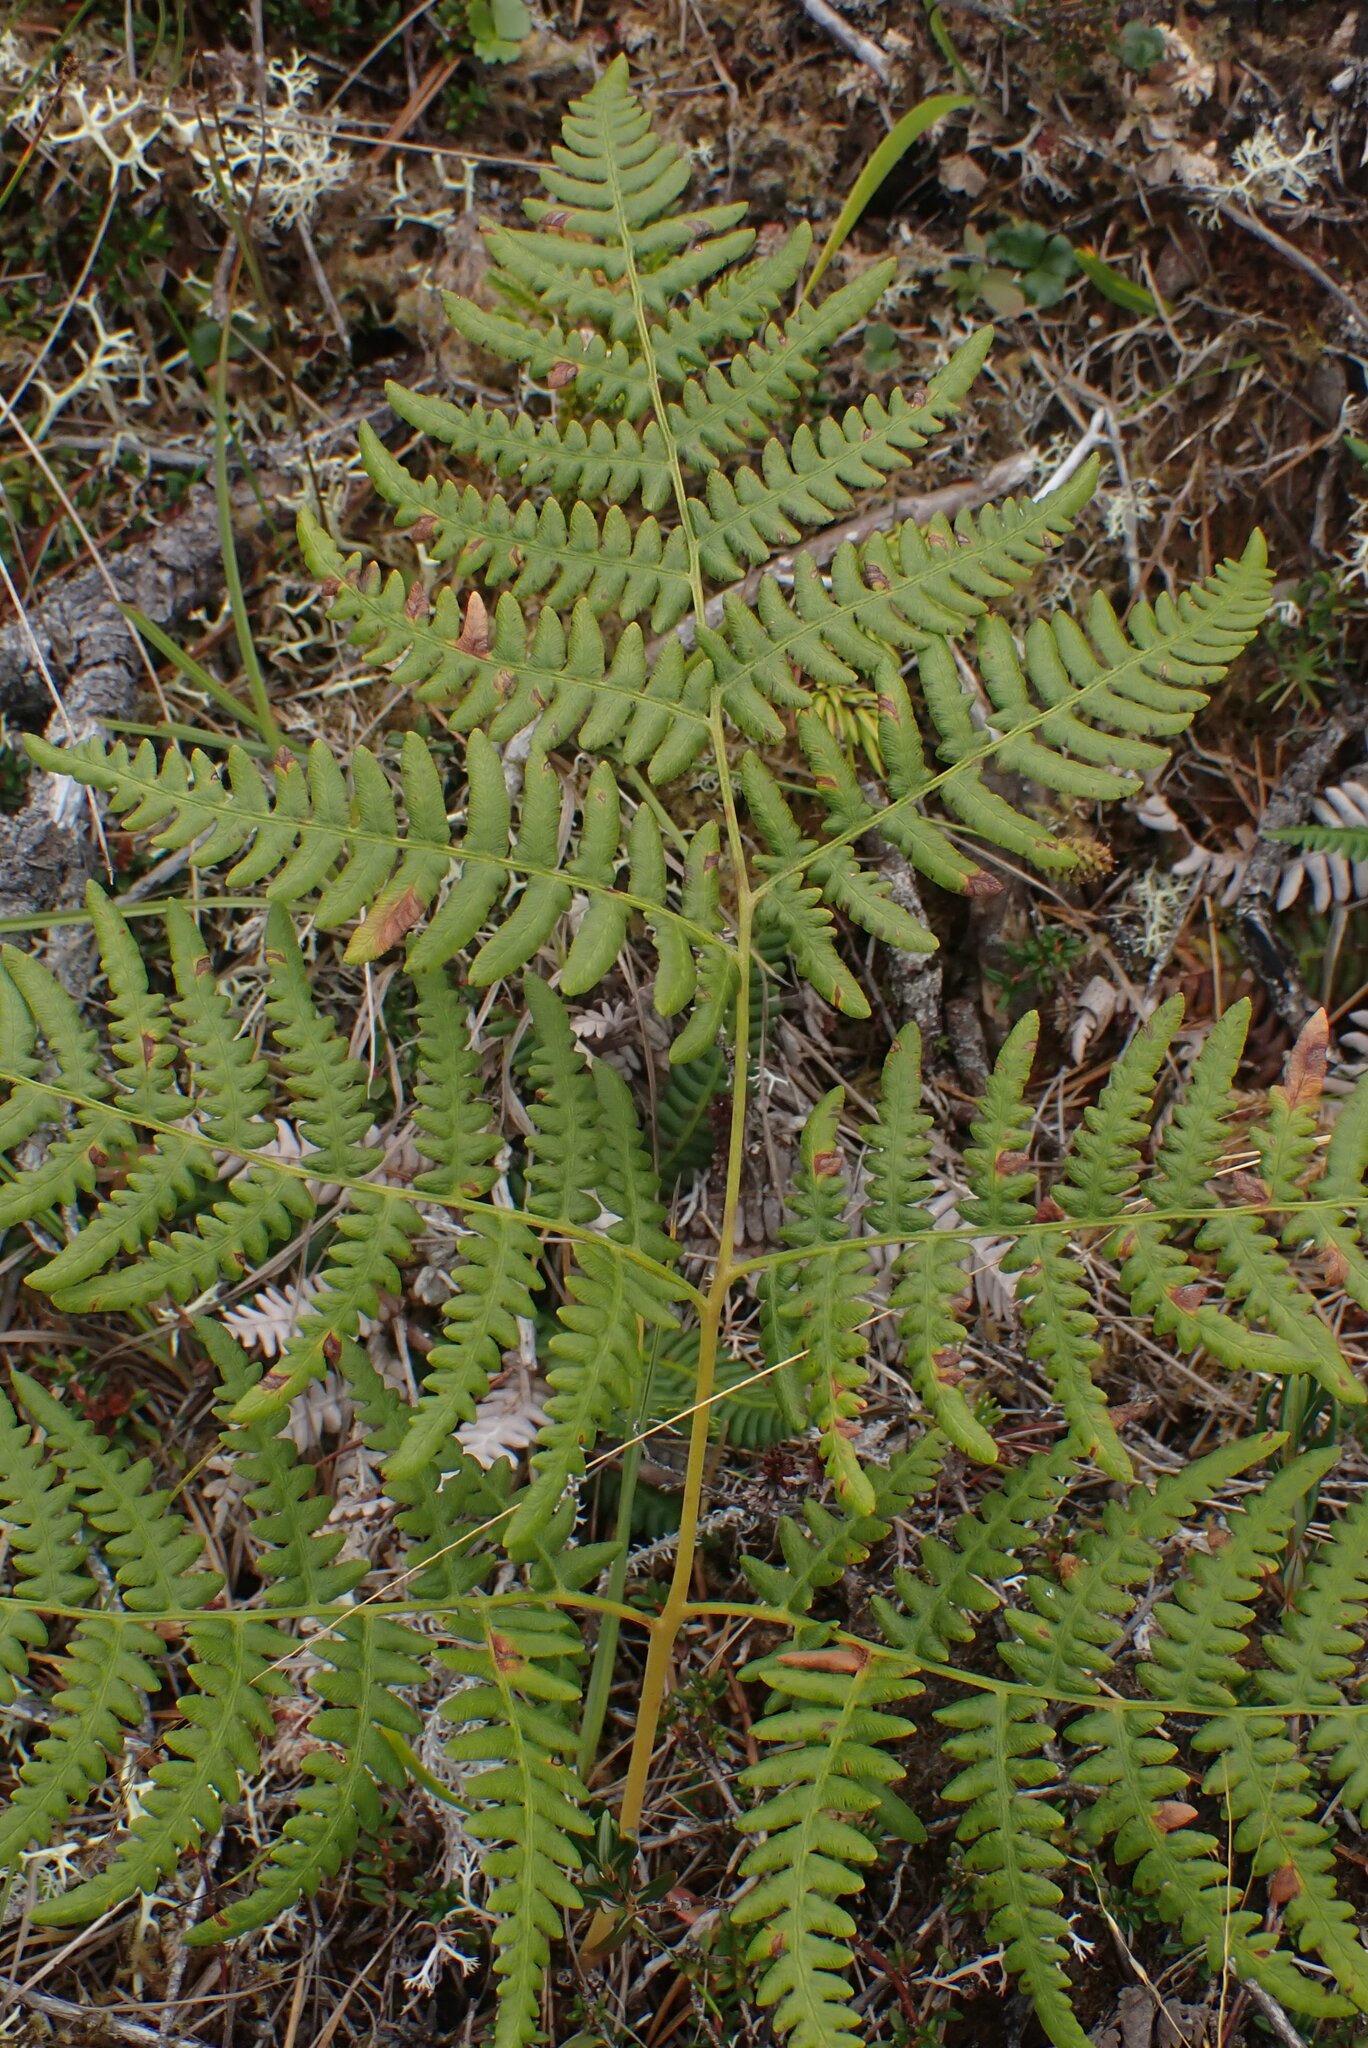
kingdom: Plantae
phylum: Tracheophyta
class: Polypodiopsida
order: Polypodiales
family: Dennstaedtiaceae
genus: Pteridium
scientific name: Pteridium aquilinum
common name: Bracken
